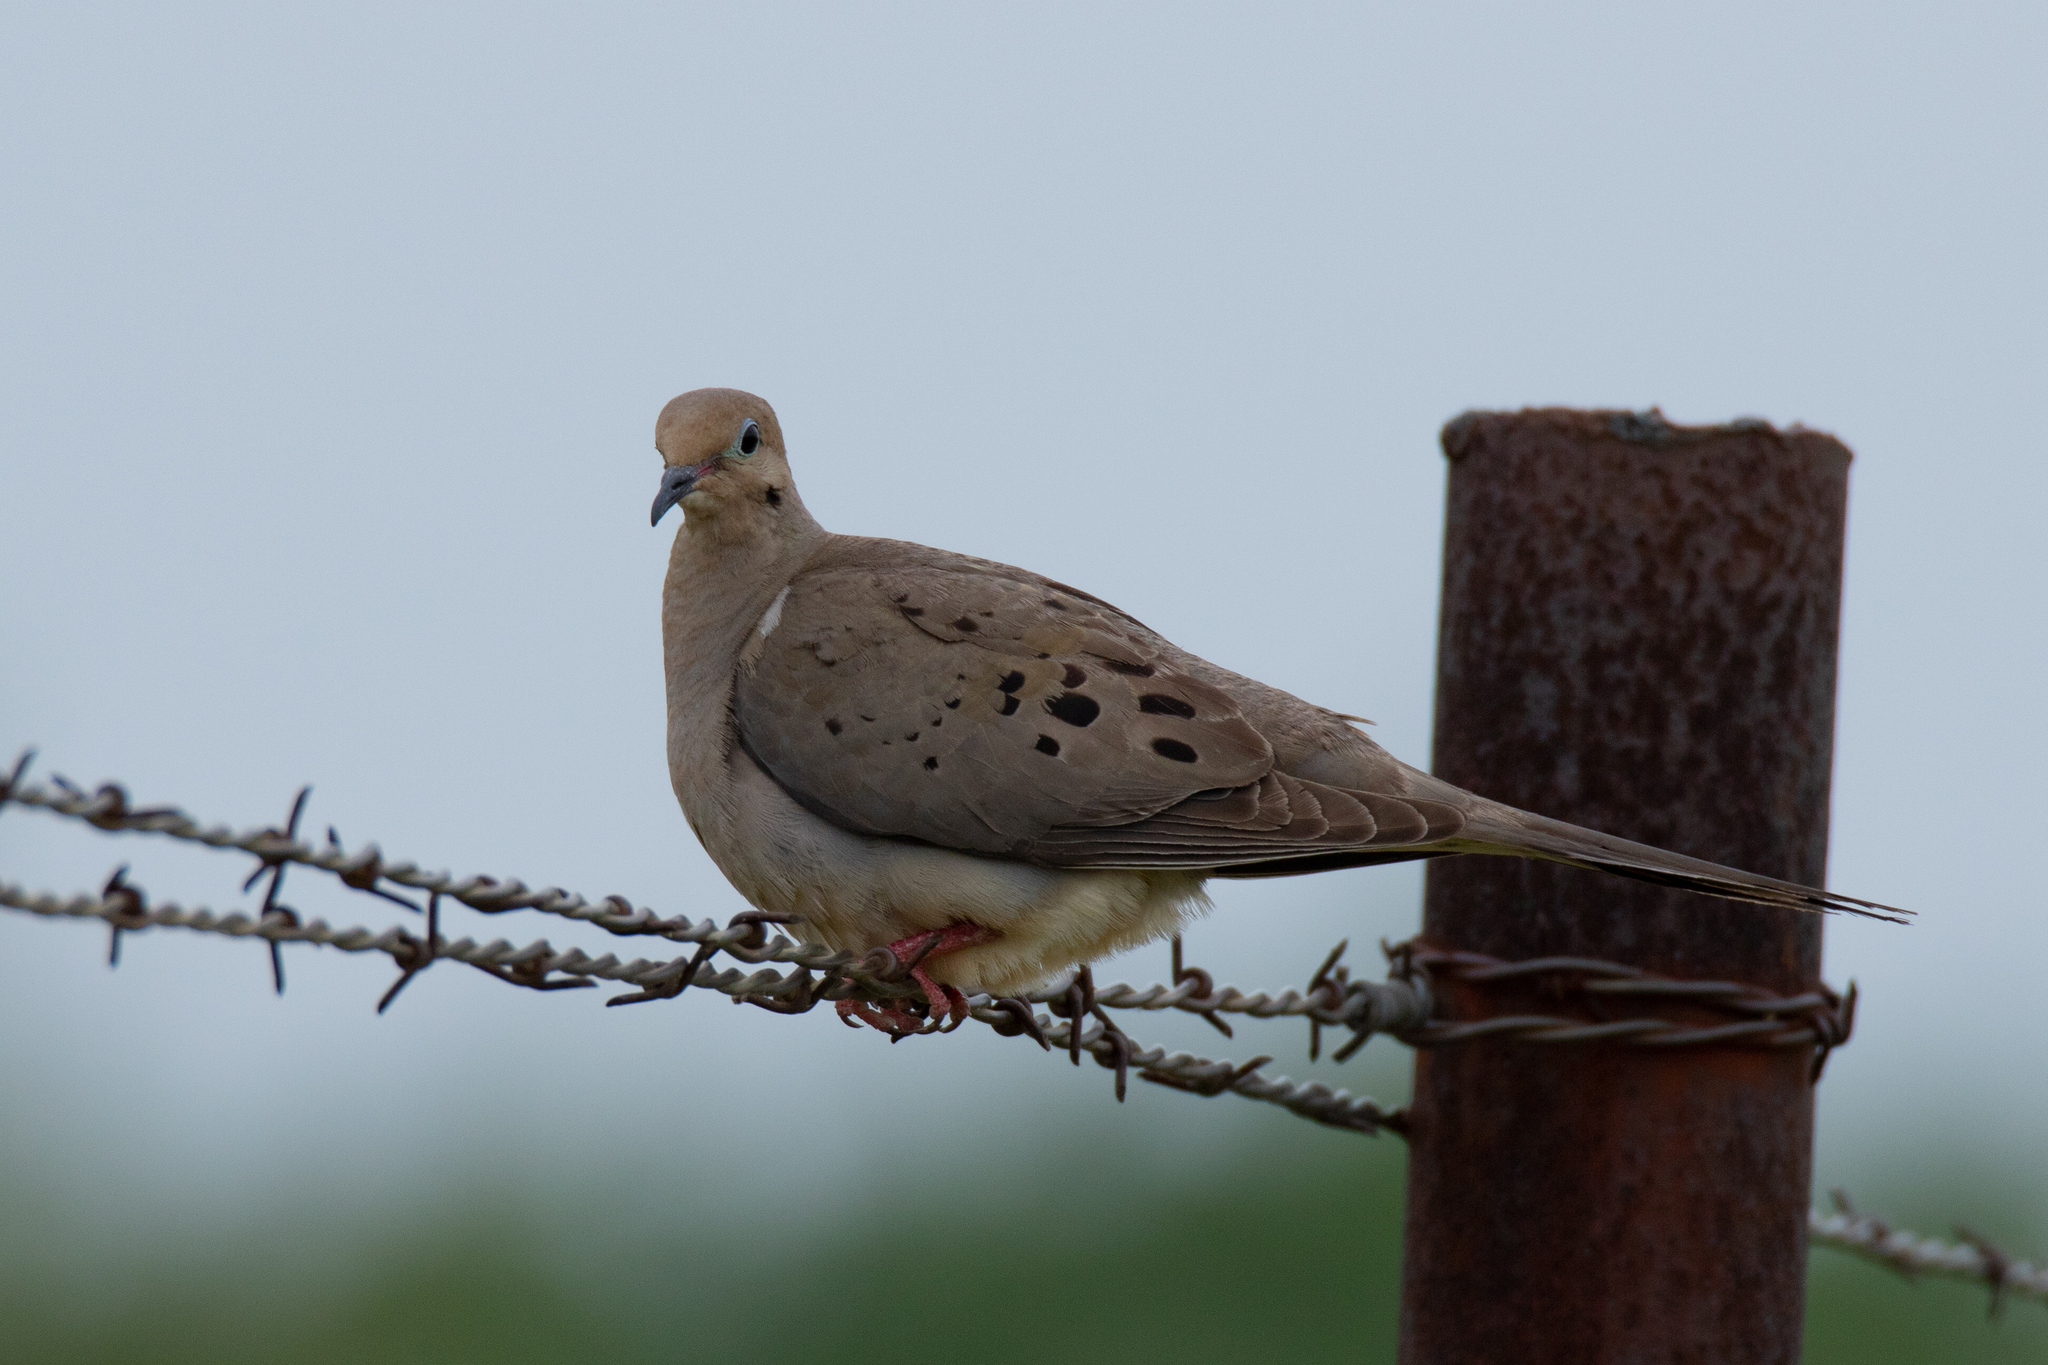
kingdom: Animalia
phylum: Chordata
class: Aves
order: Columbiformes
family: Columbidae
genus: Zenaida
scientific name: Zenaida macroura
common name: Mourning dove
